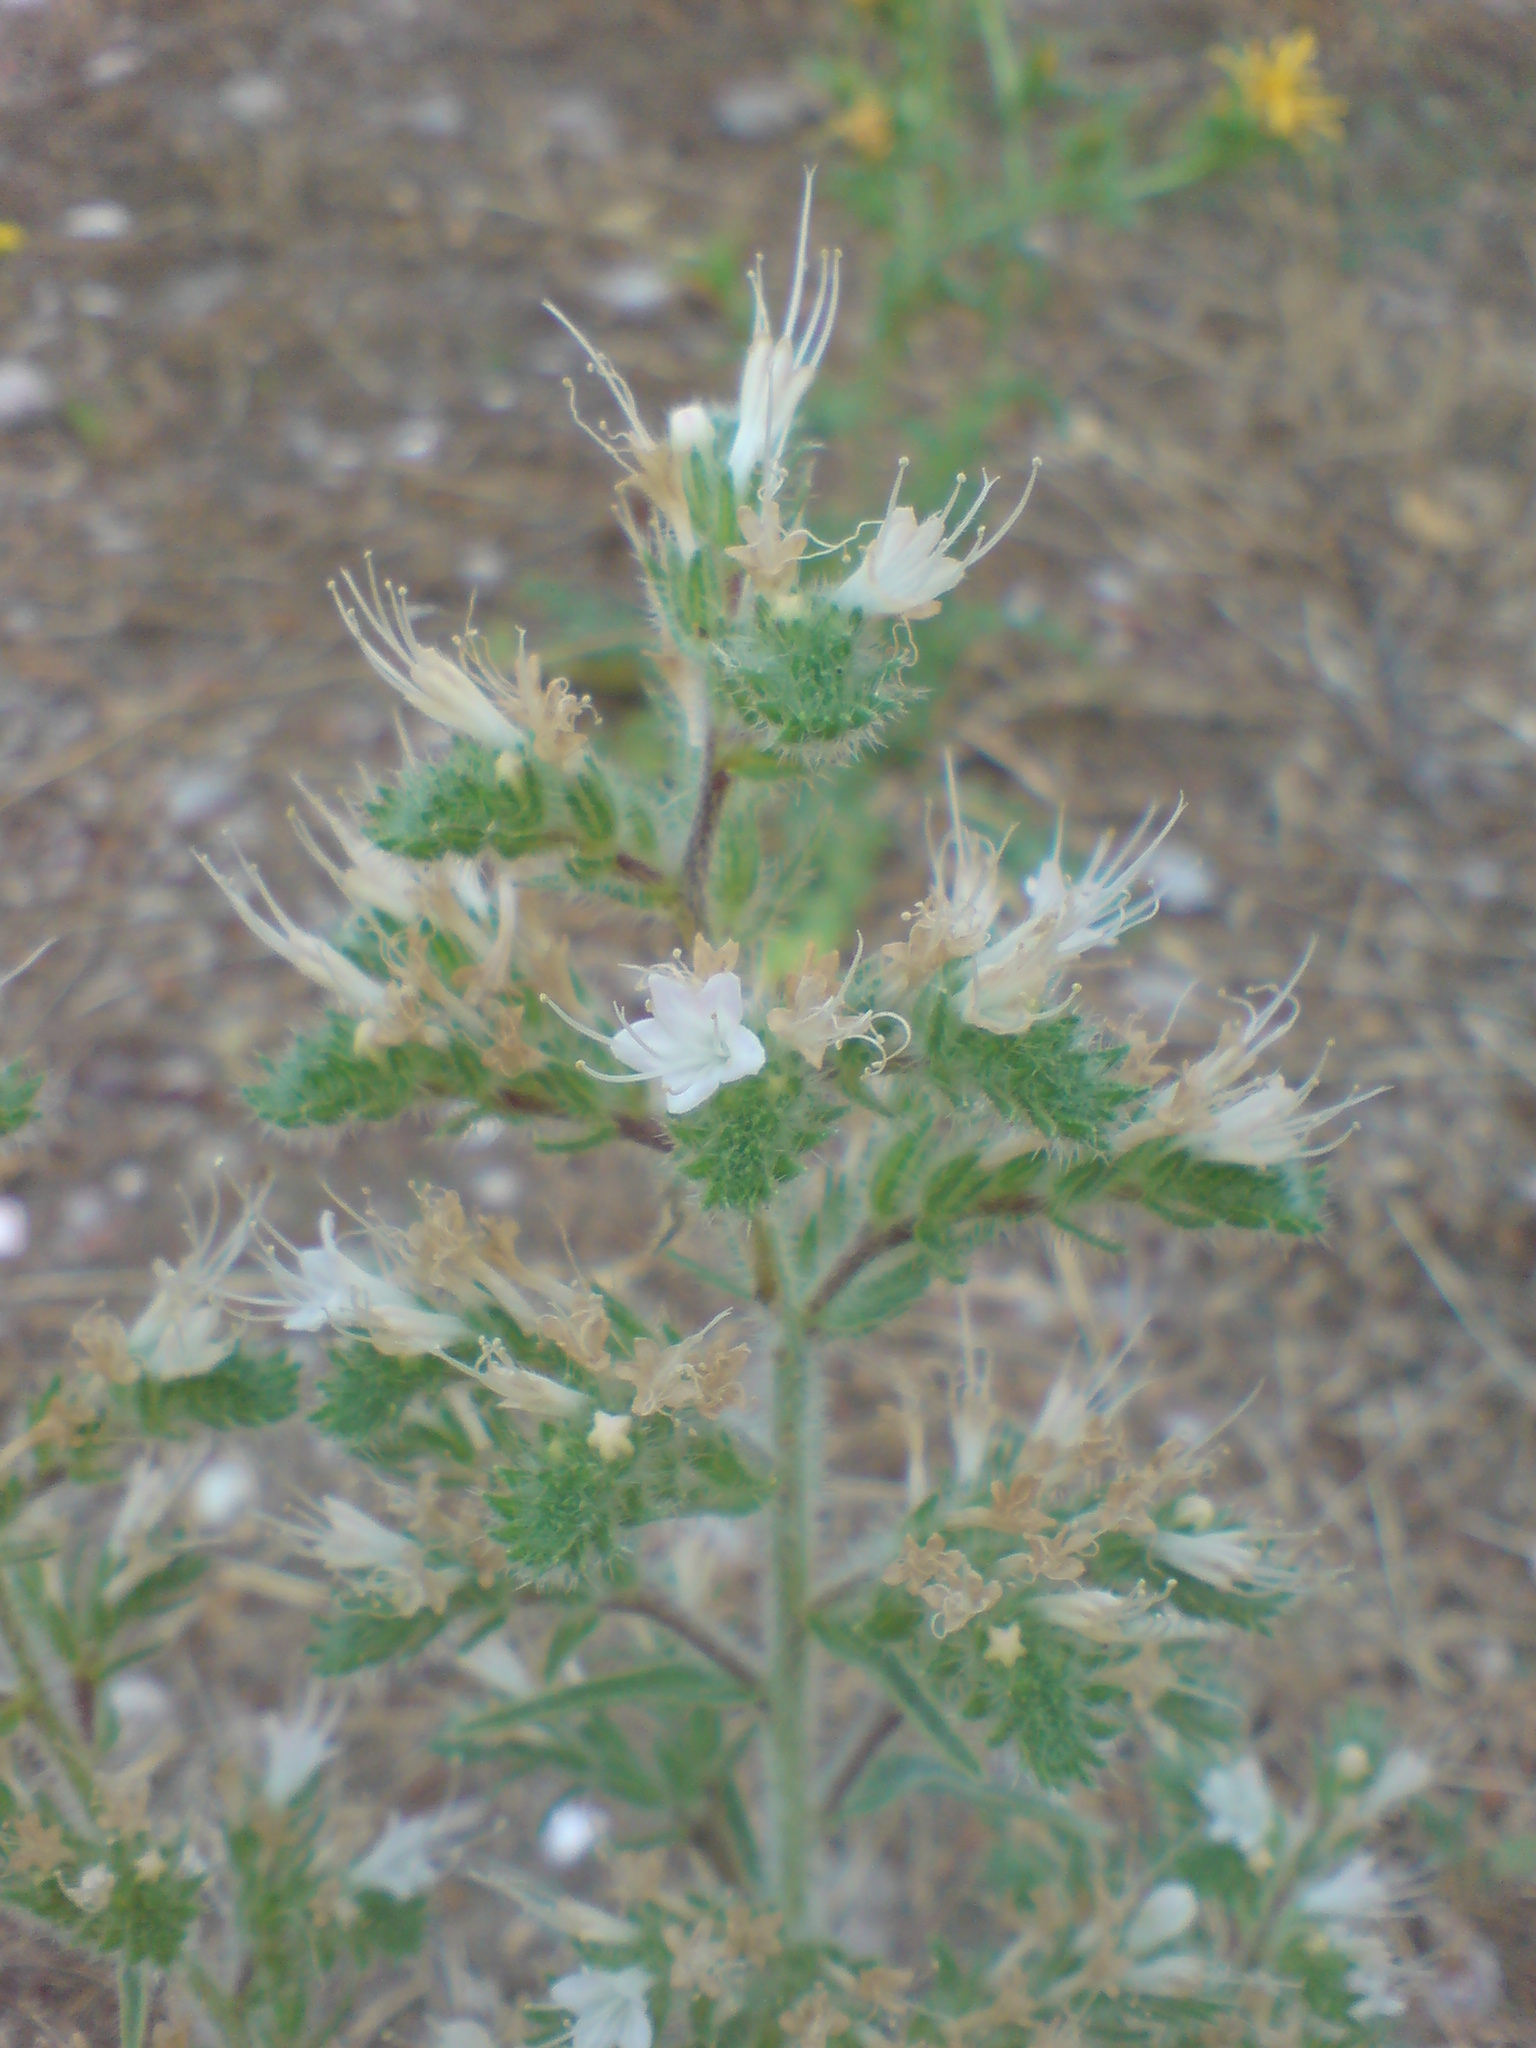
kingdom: Plantae
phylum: Tracheophyta
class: Magnoliopsida
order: Boraginales
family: Boraginaceae
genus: Echium
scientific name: Echium italicum
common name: Italian viper's bugloss
